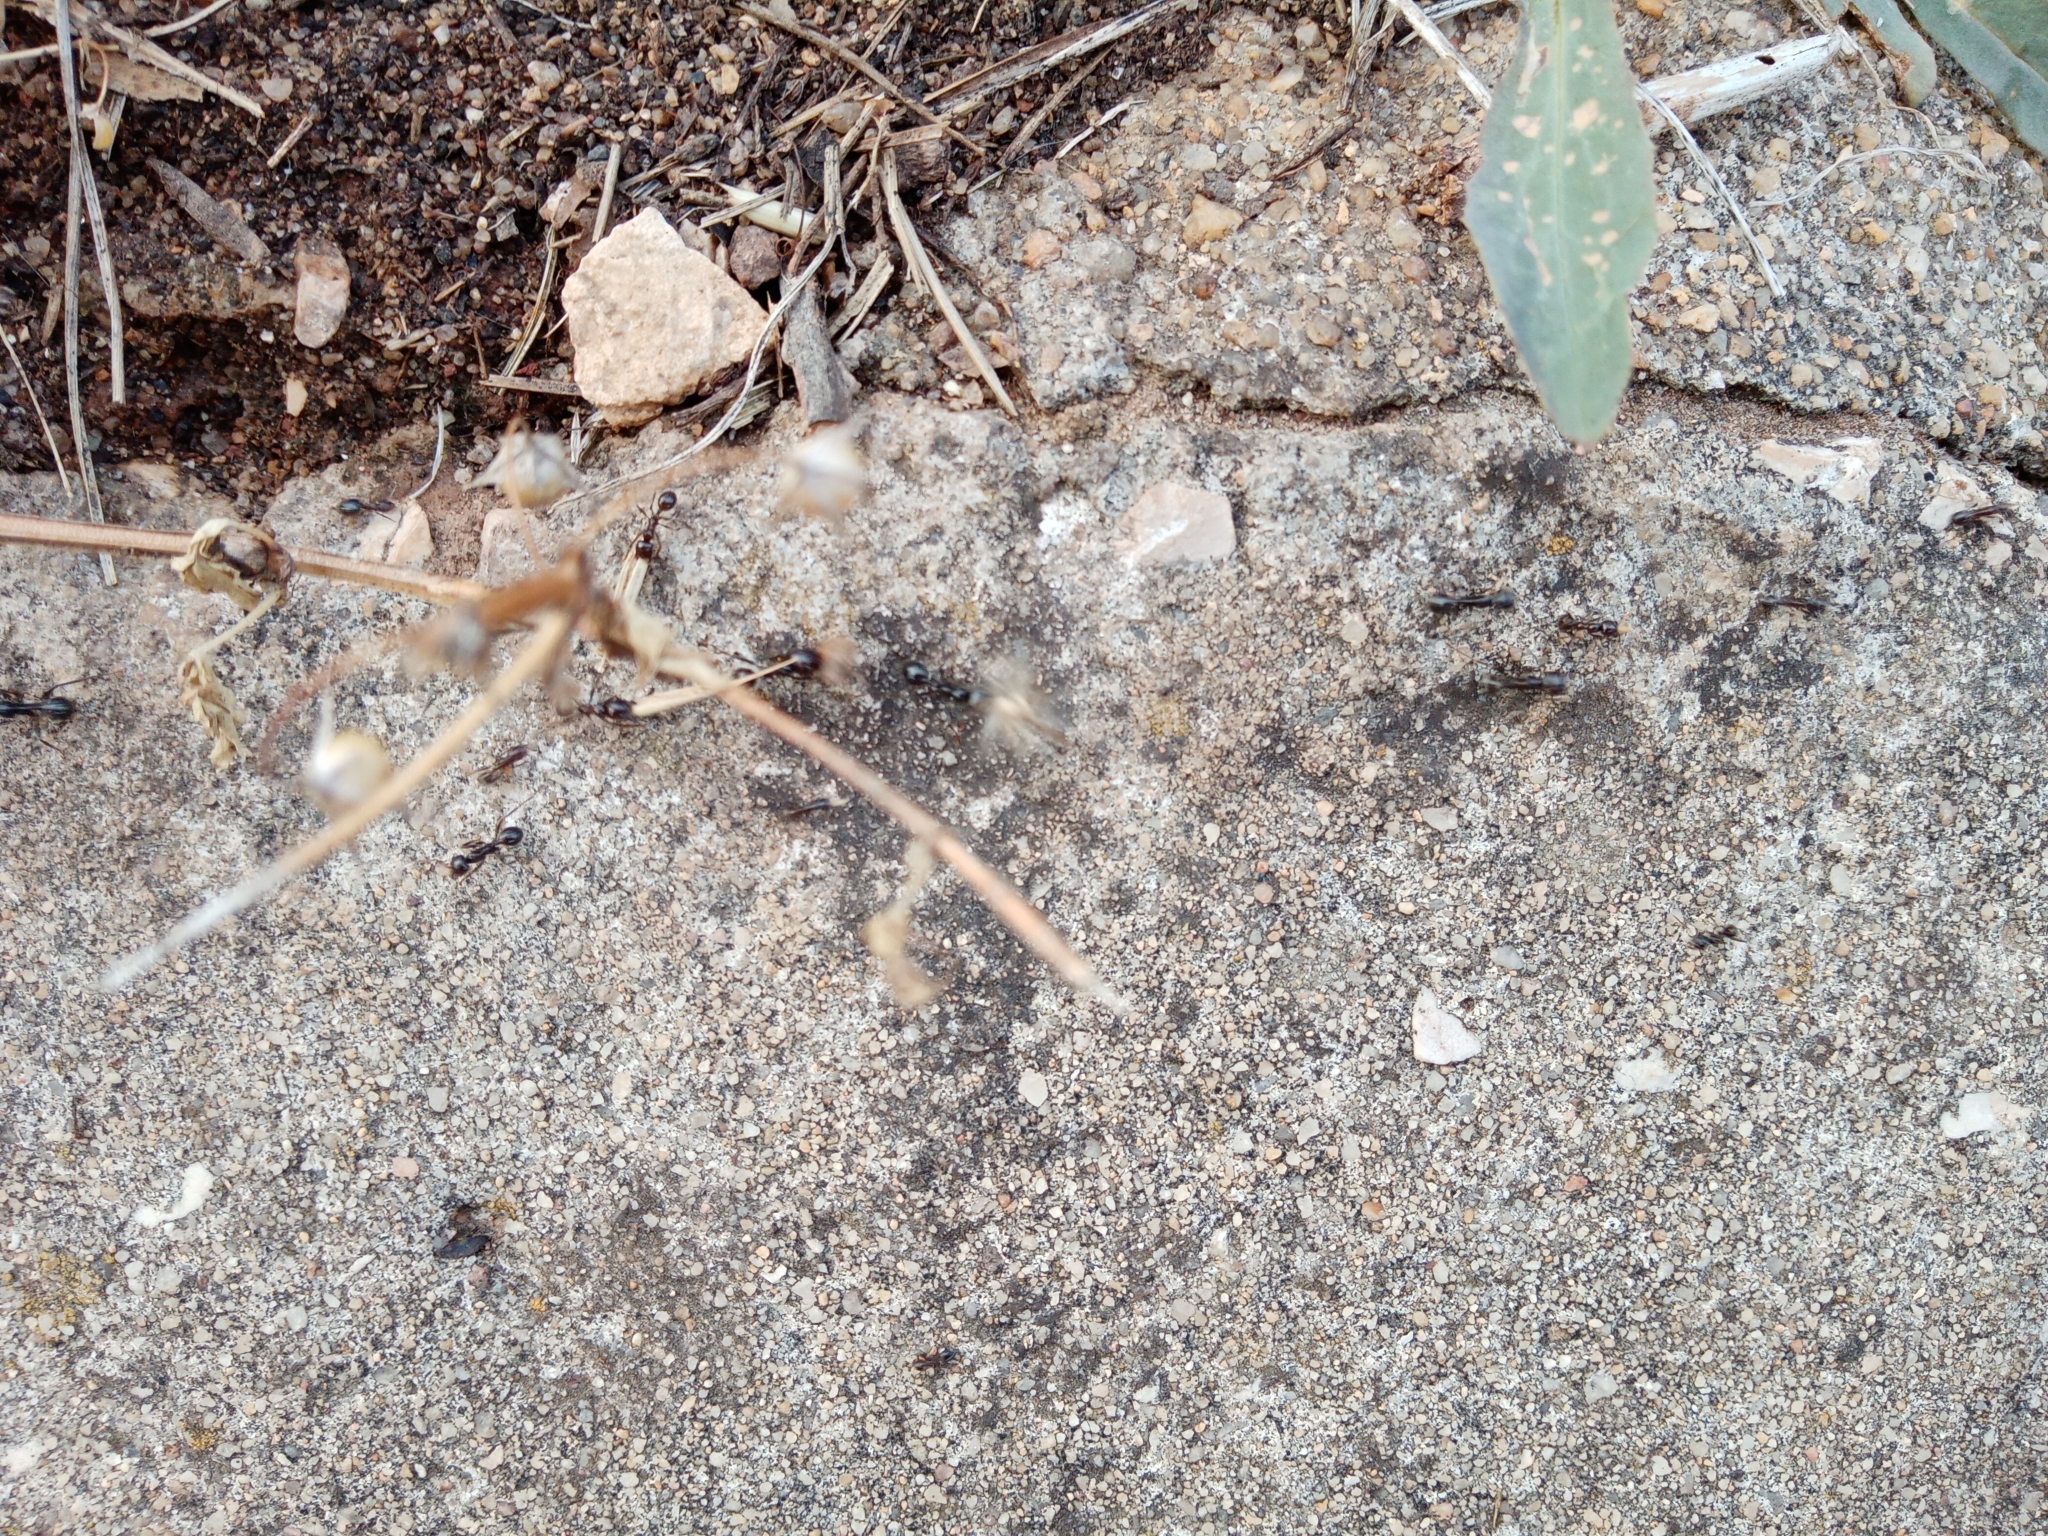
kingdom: Animalia
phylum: Arthropoda
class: Insecta
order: Hymenoptera
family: Formicidae
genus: Messor
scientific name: Messor barbarus
